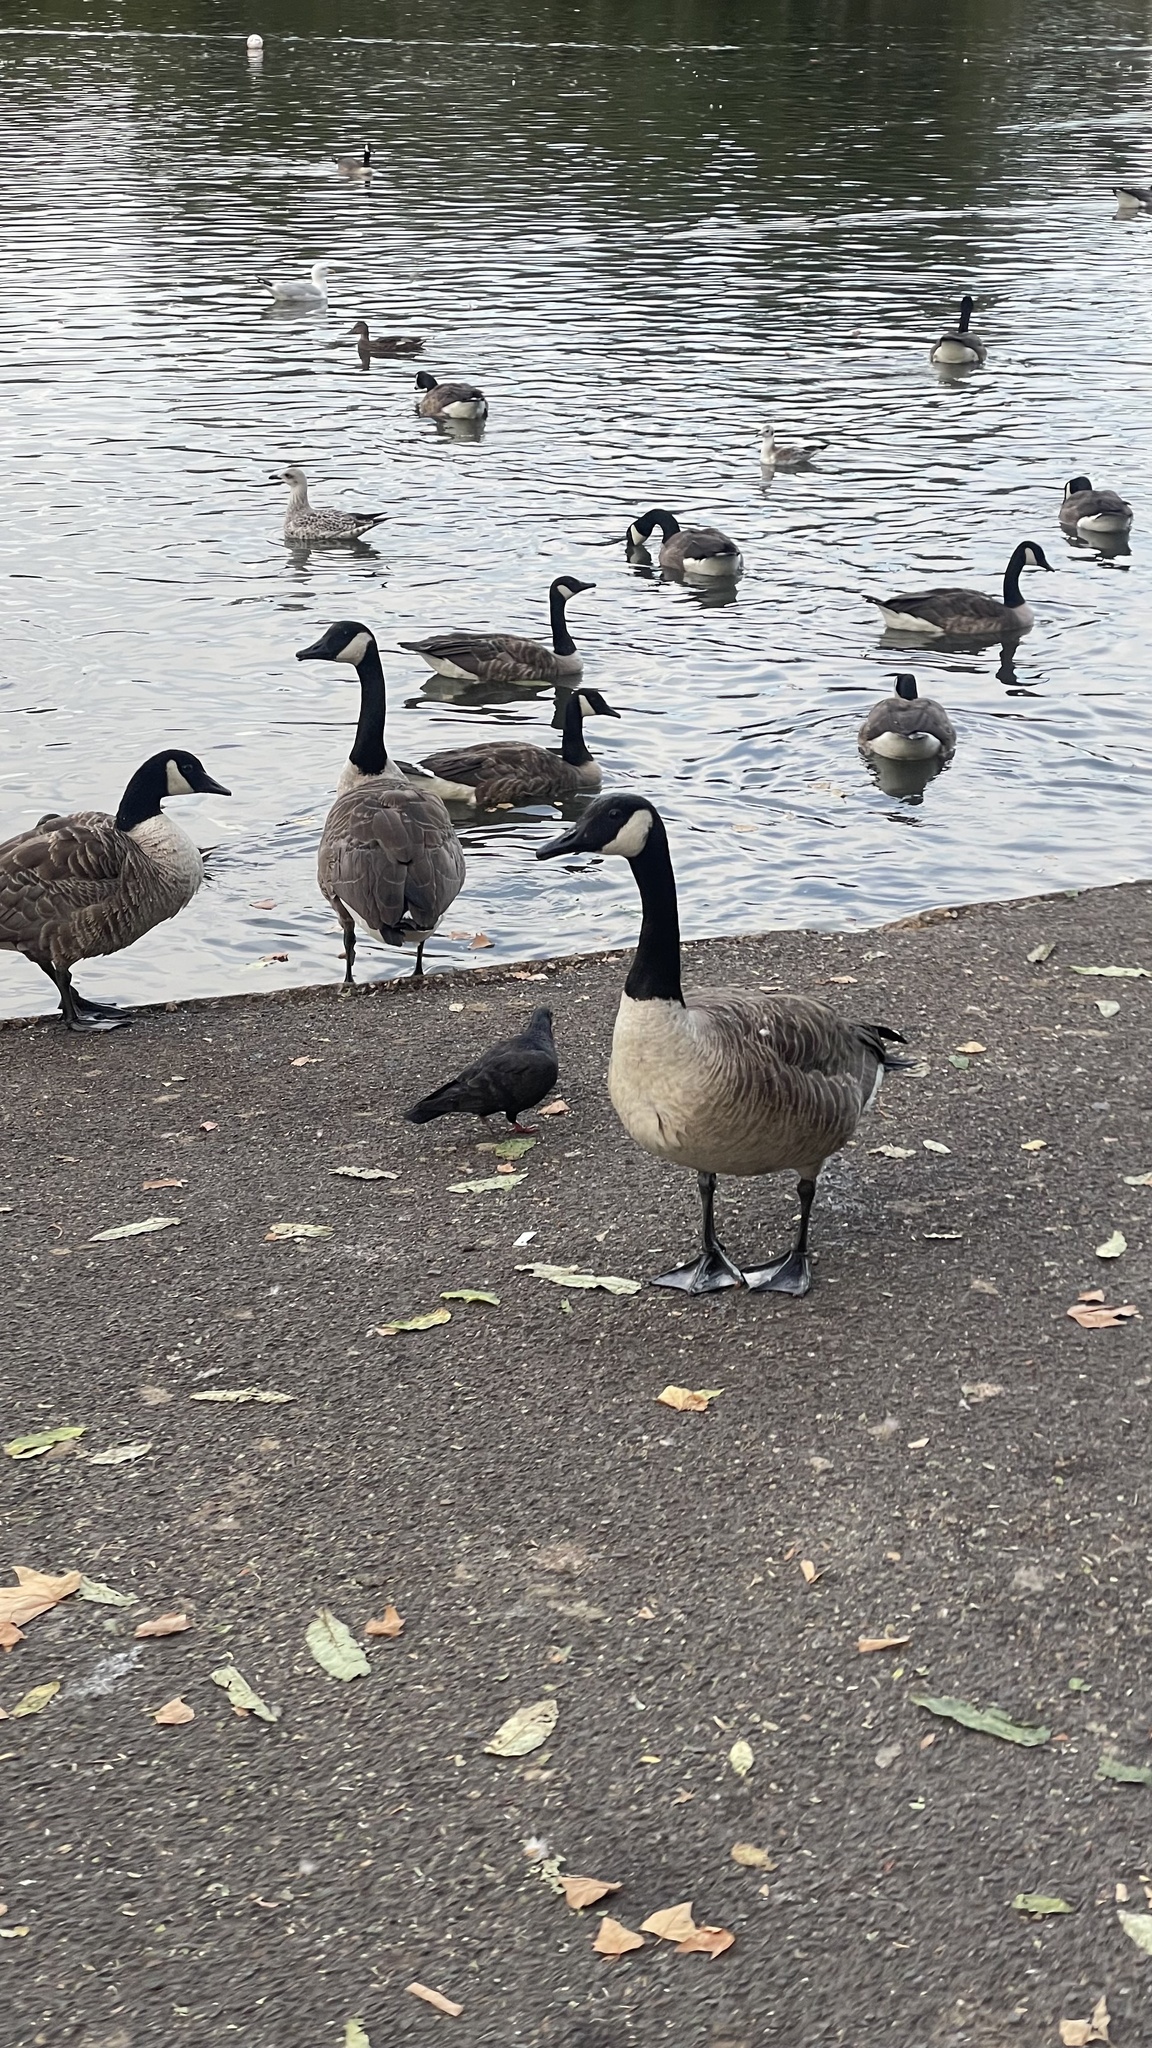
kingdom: Animalia
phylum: Chordata
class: Aves
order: Anseriformes
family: Anatidae
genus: Branta
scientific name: Branta canadensis
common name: Canada goose
